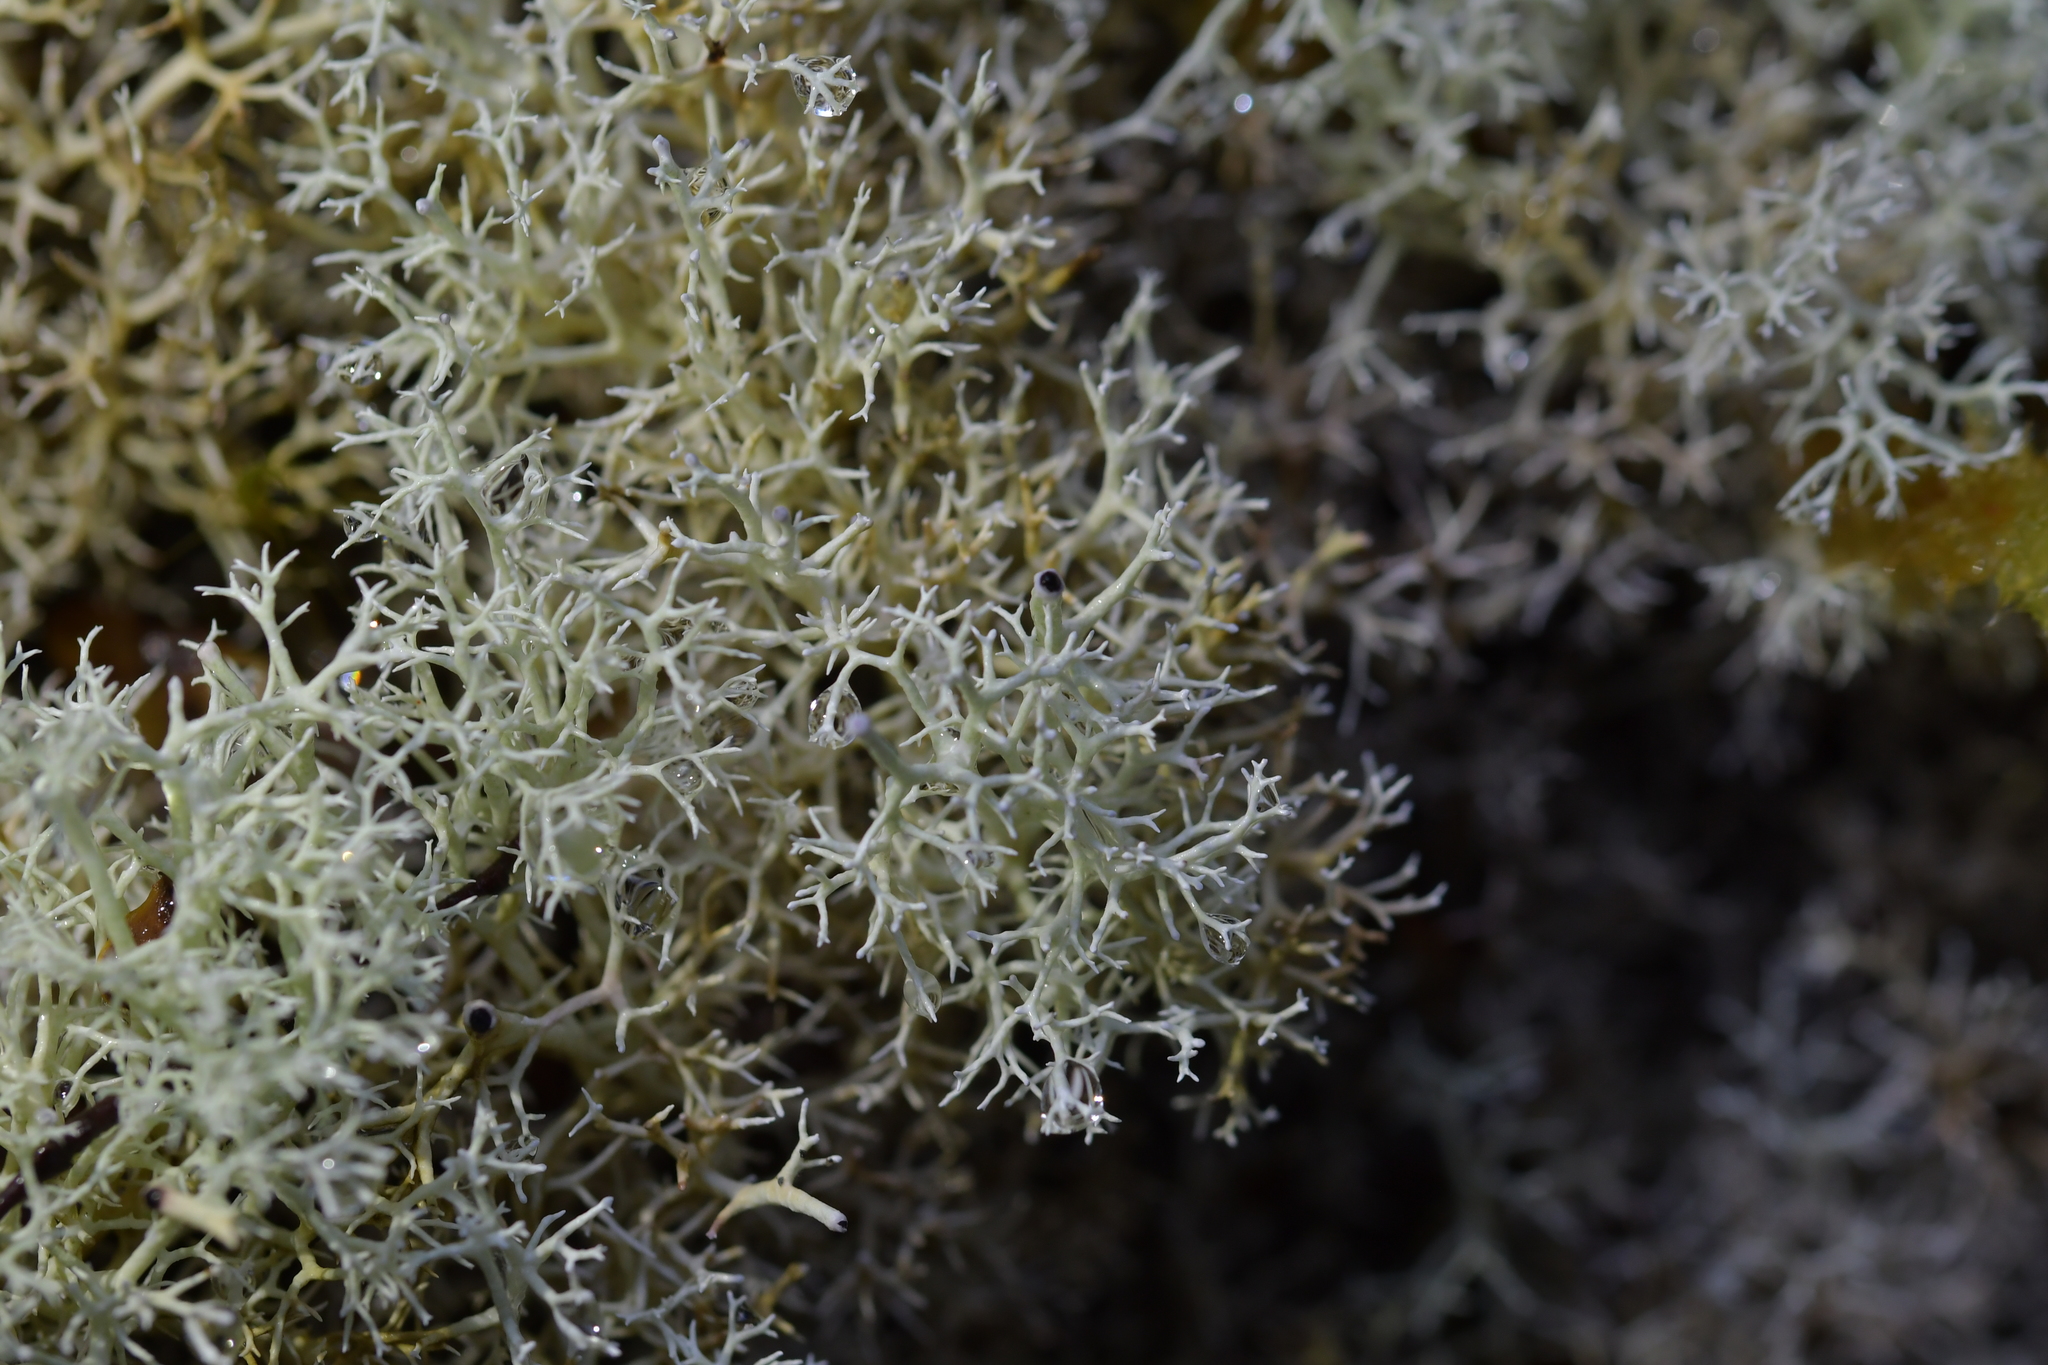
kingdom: Fungi
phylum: Ascomycota
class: Lecanoromycetes
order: Lecanorales
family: Cladoniaceae
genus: Cladonia
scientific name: Cladonia confusa
